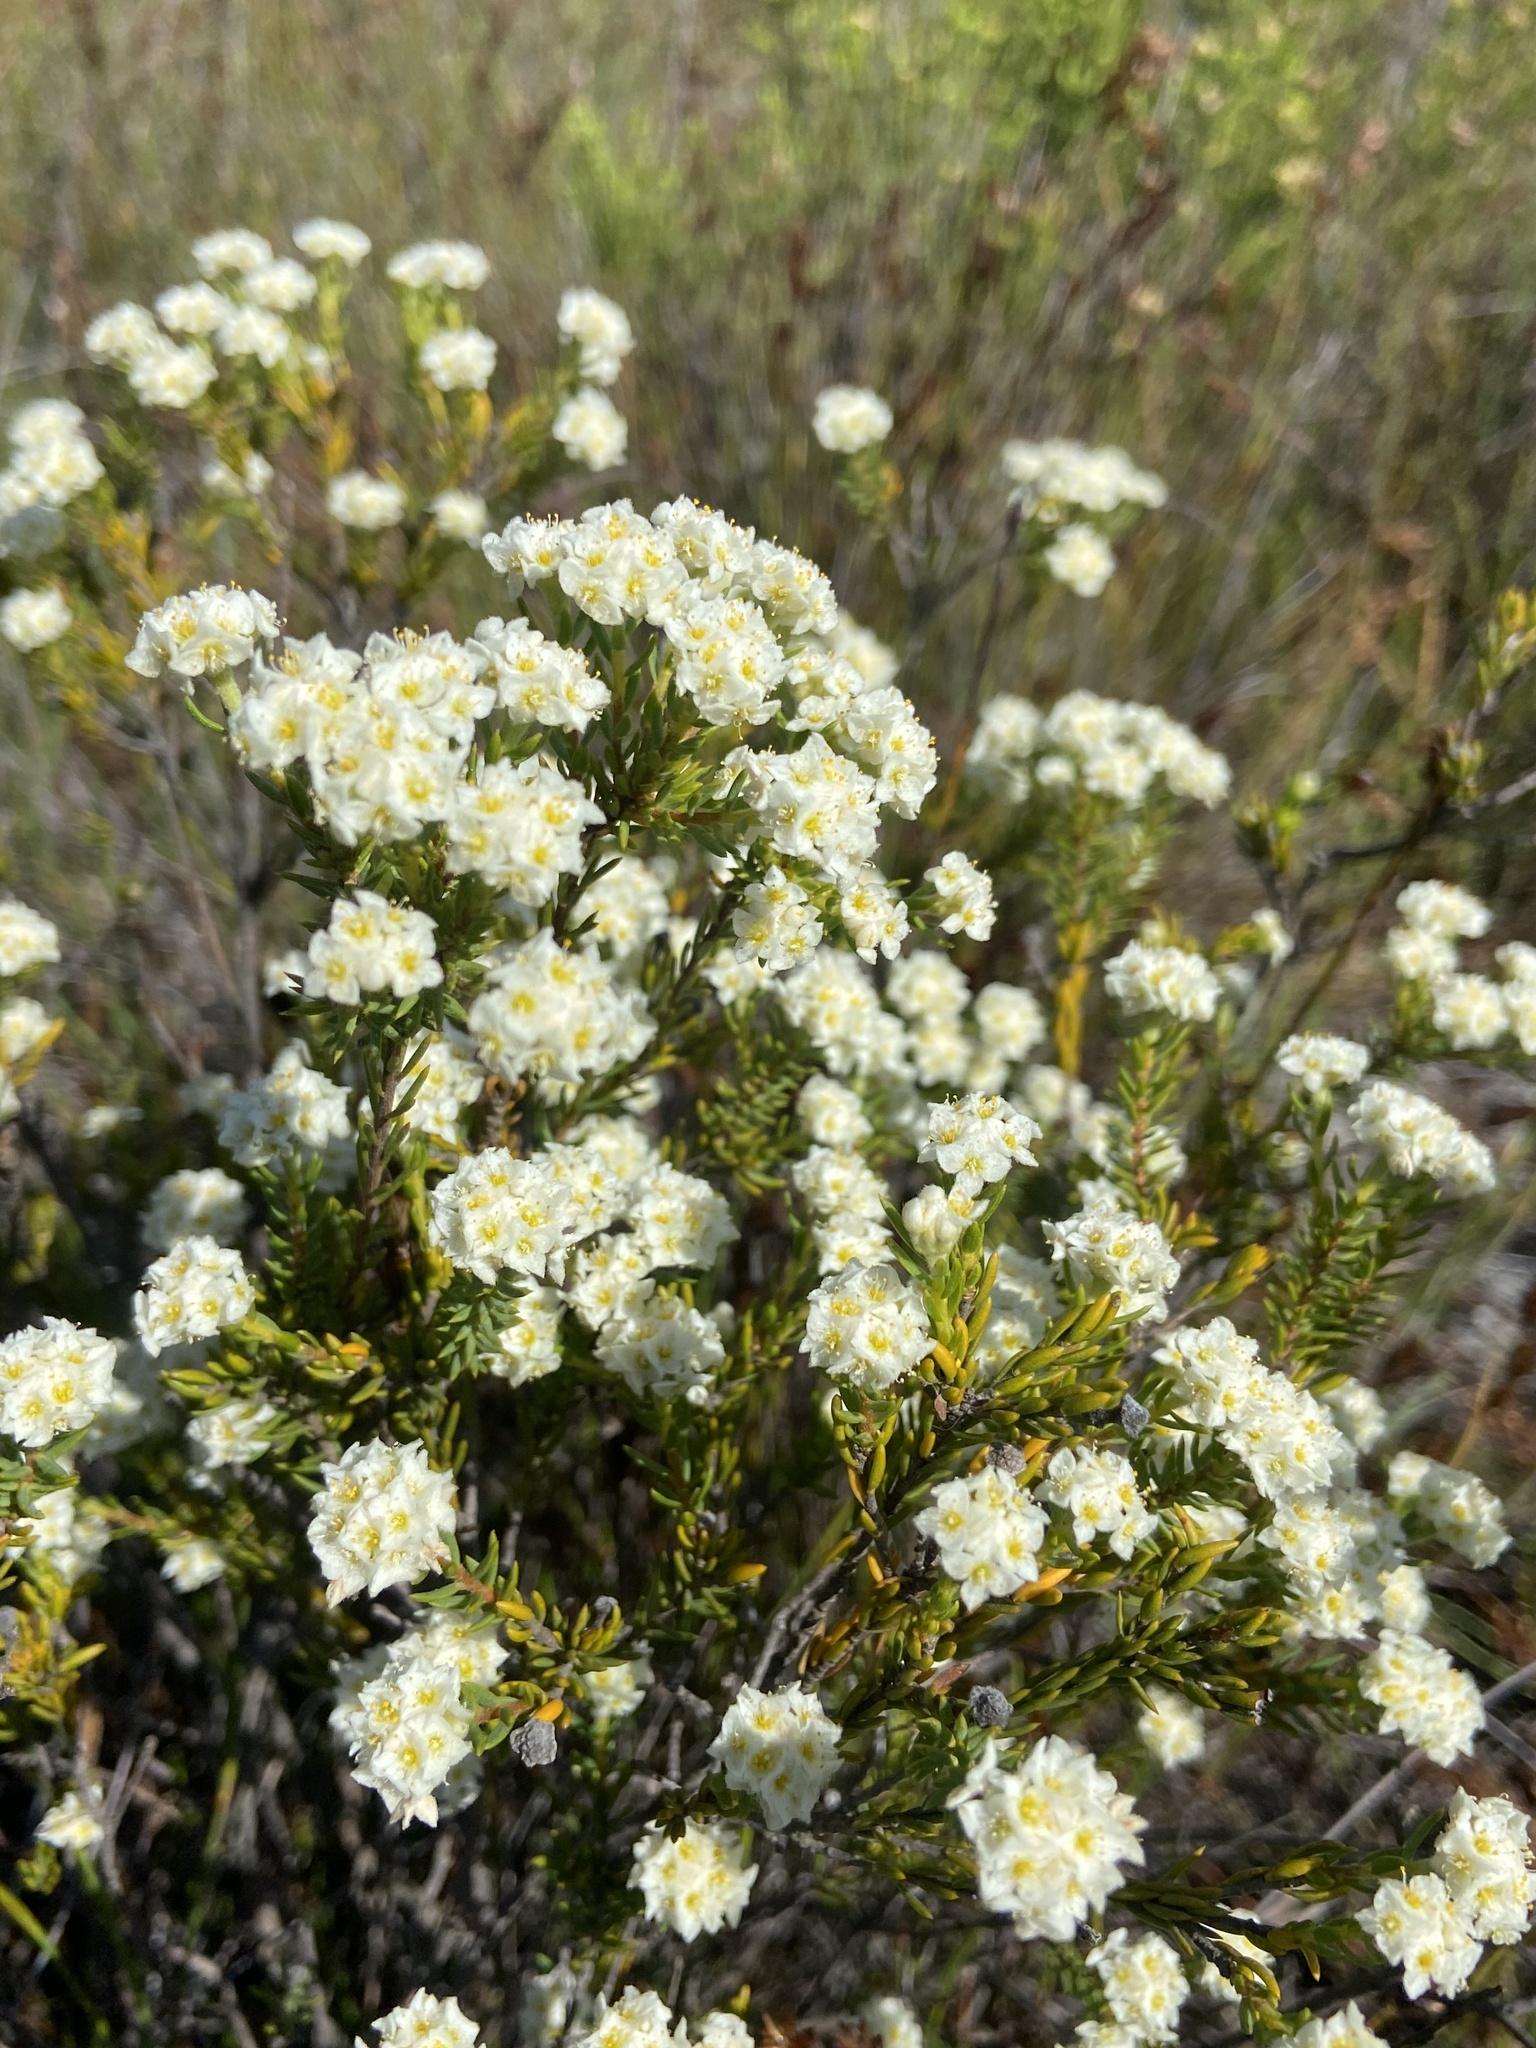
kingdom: Plantae
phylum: Tracheophyta
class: Magnoliopsida
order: Malvales
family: Thymelaeaceae
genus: Lachnaea
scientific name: Lachnaea densiflora
